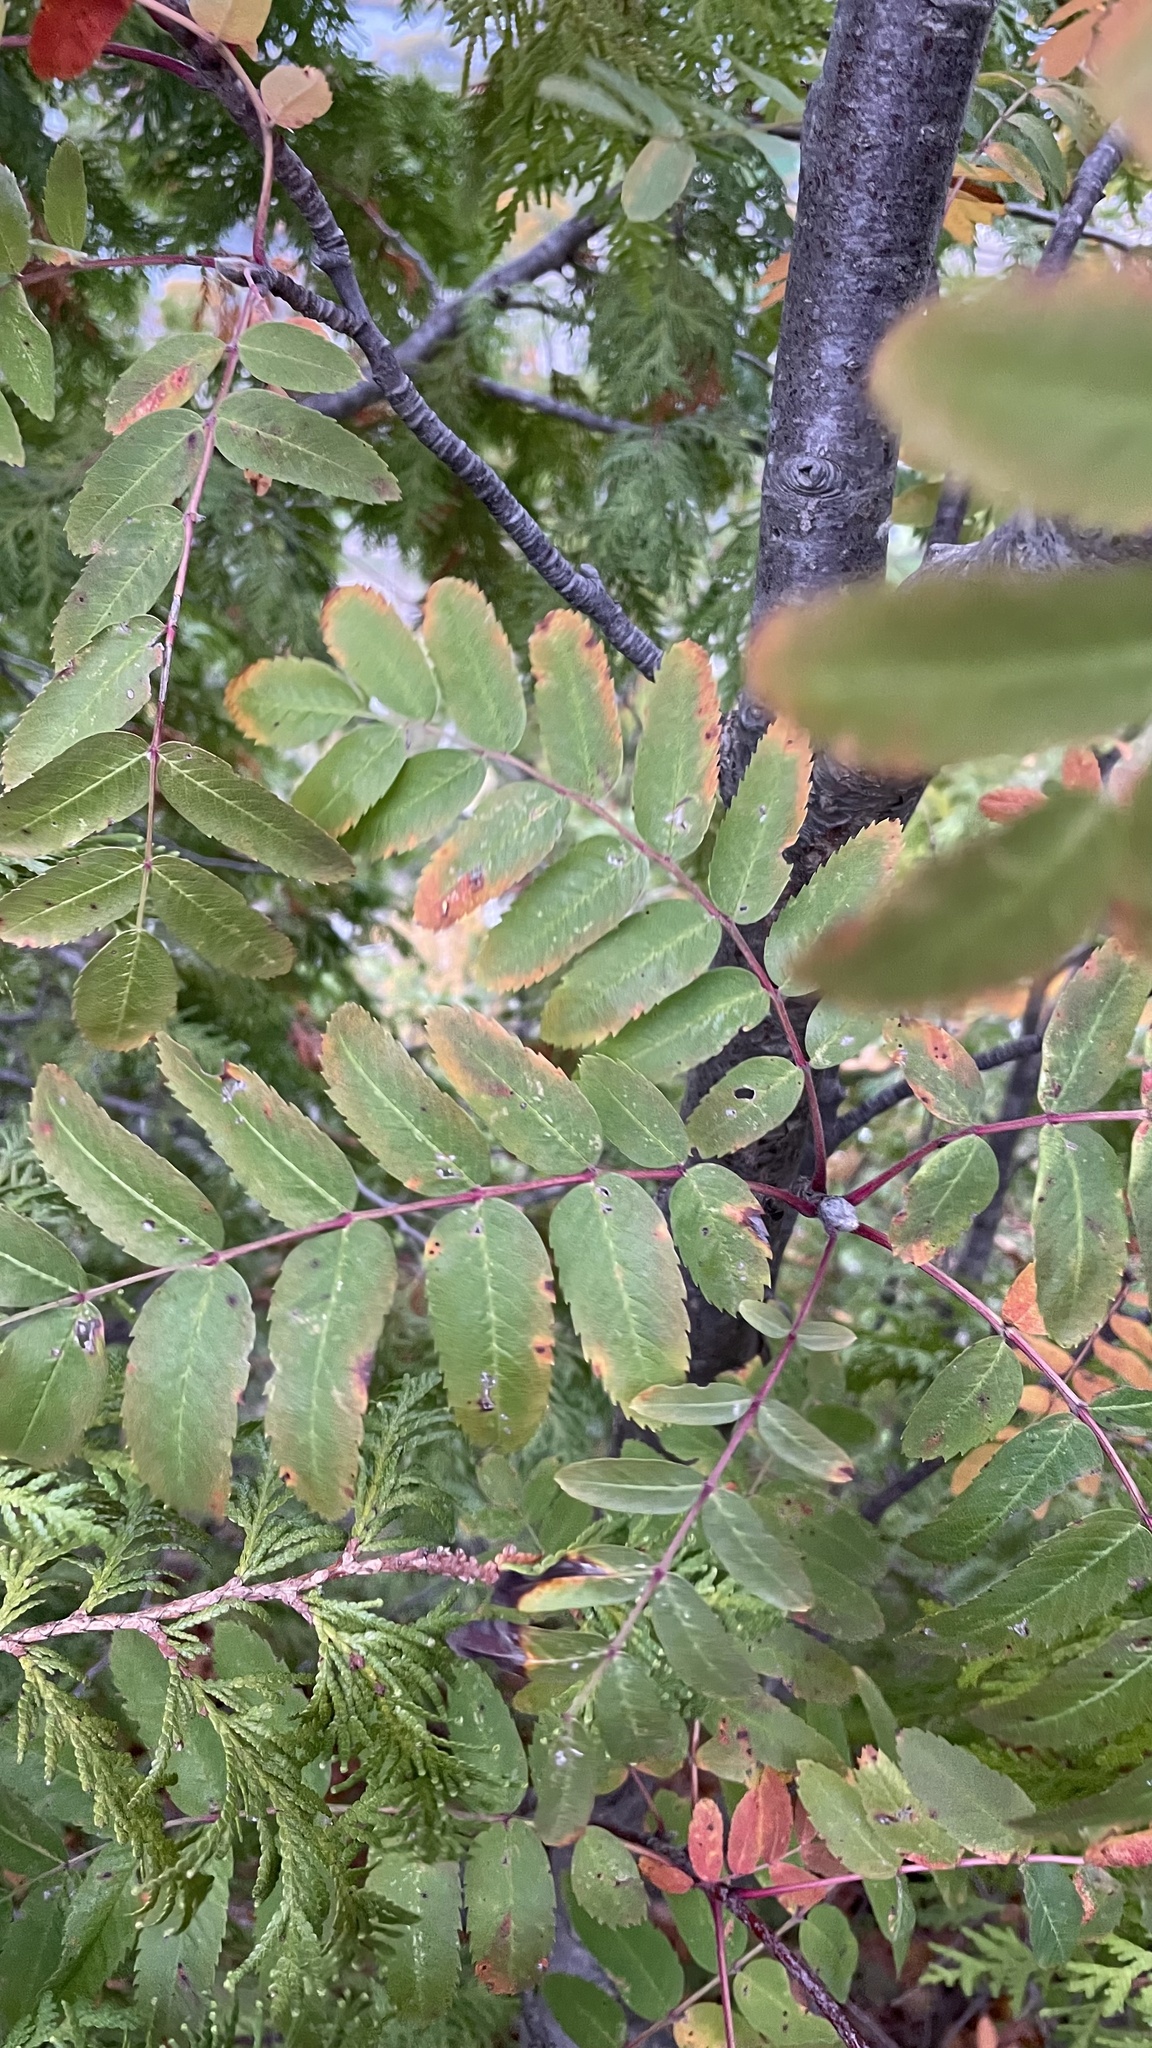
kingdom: Plantae
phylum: Tracheophyta
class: Magnoliopsida
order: Rosales
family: Rosaceae
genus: Sorbus
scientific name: Sorbus aucuparia
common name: Rowan
